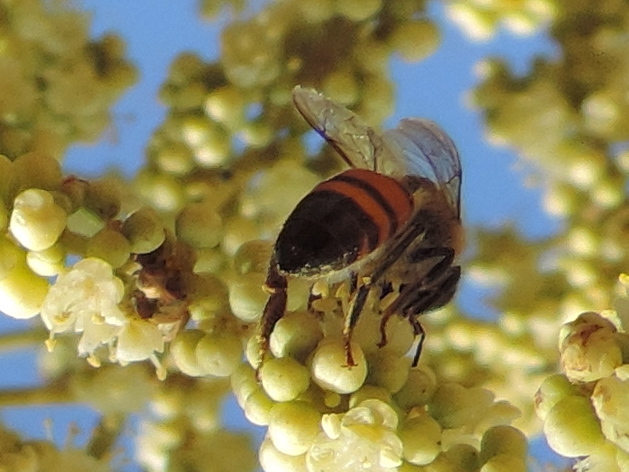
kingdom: Animalia
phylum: Arthropoda
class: Insecta
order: Hymenoptera
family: Apidae
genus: Apis
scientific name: Apis mellifera
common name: Honey bee
